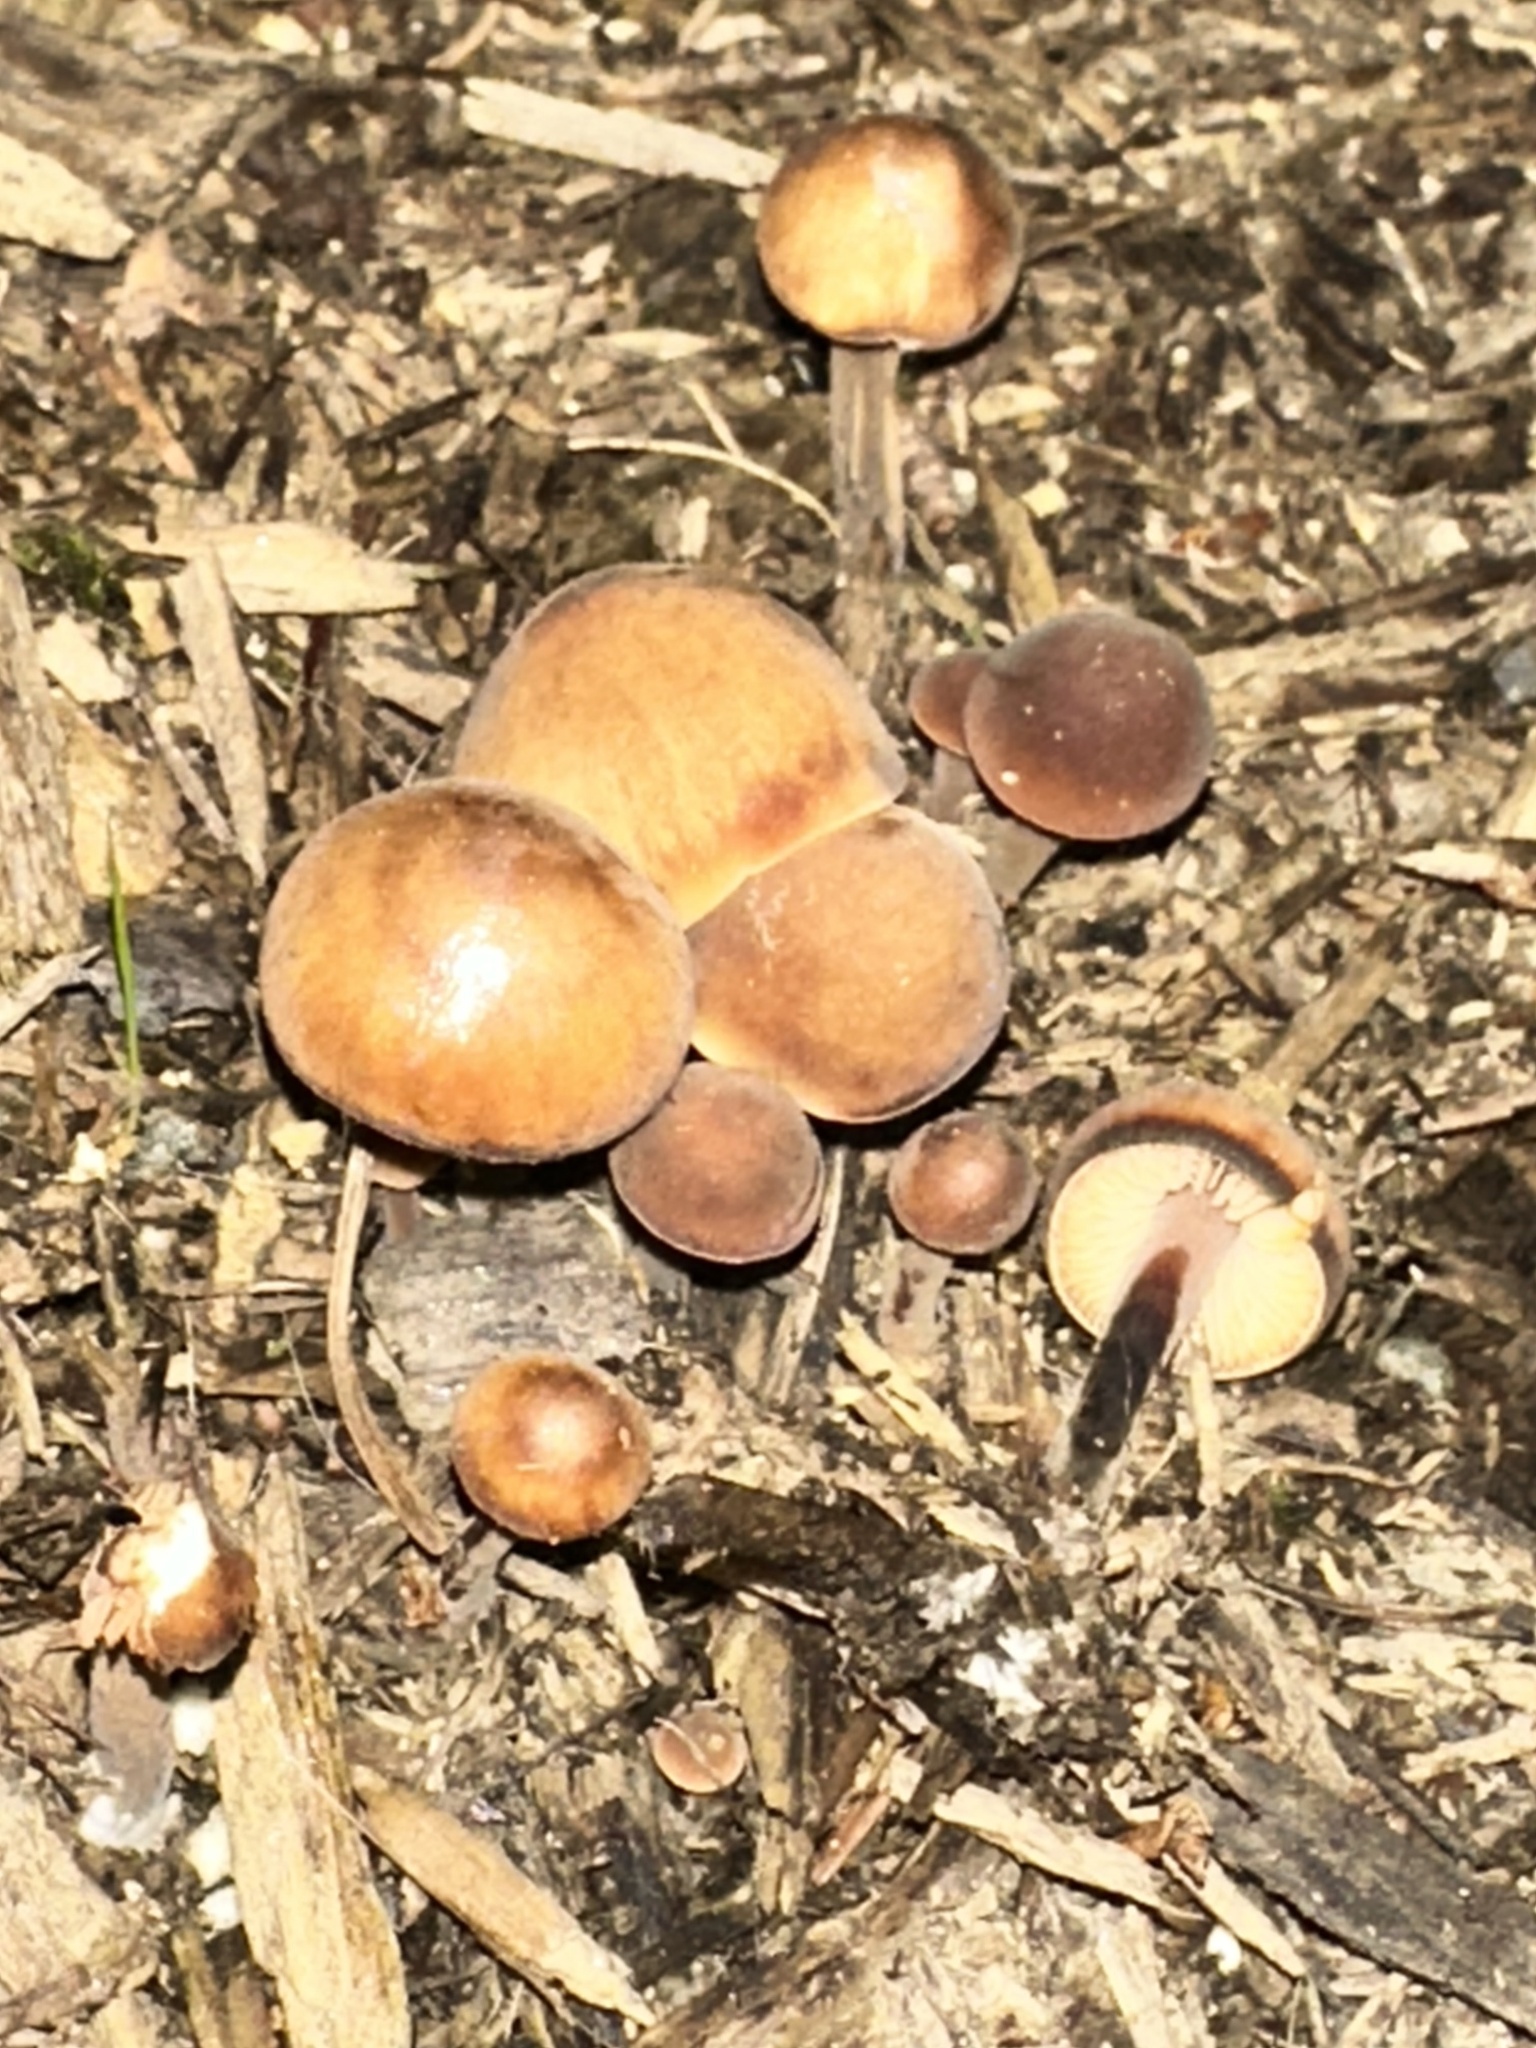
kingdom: Fungi
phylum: Basidiomycota
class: Agaricomycetes
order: Agaricales
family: Macrocystidiaceae
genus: Macrocystidia
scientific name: Macrocystidia cucumis
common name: Cucumber cap
